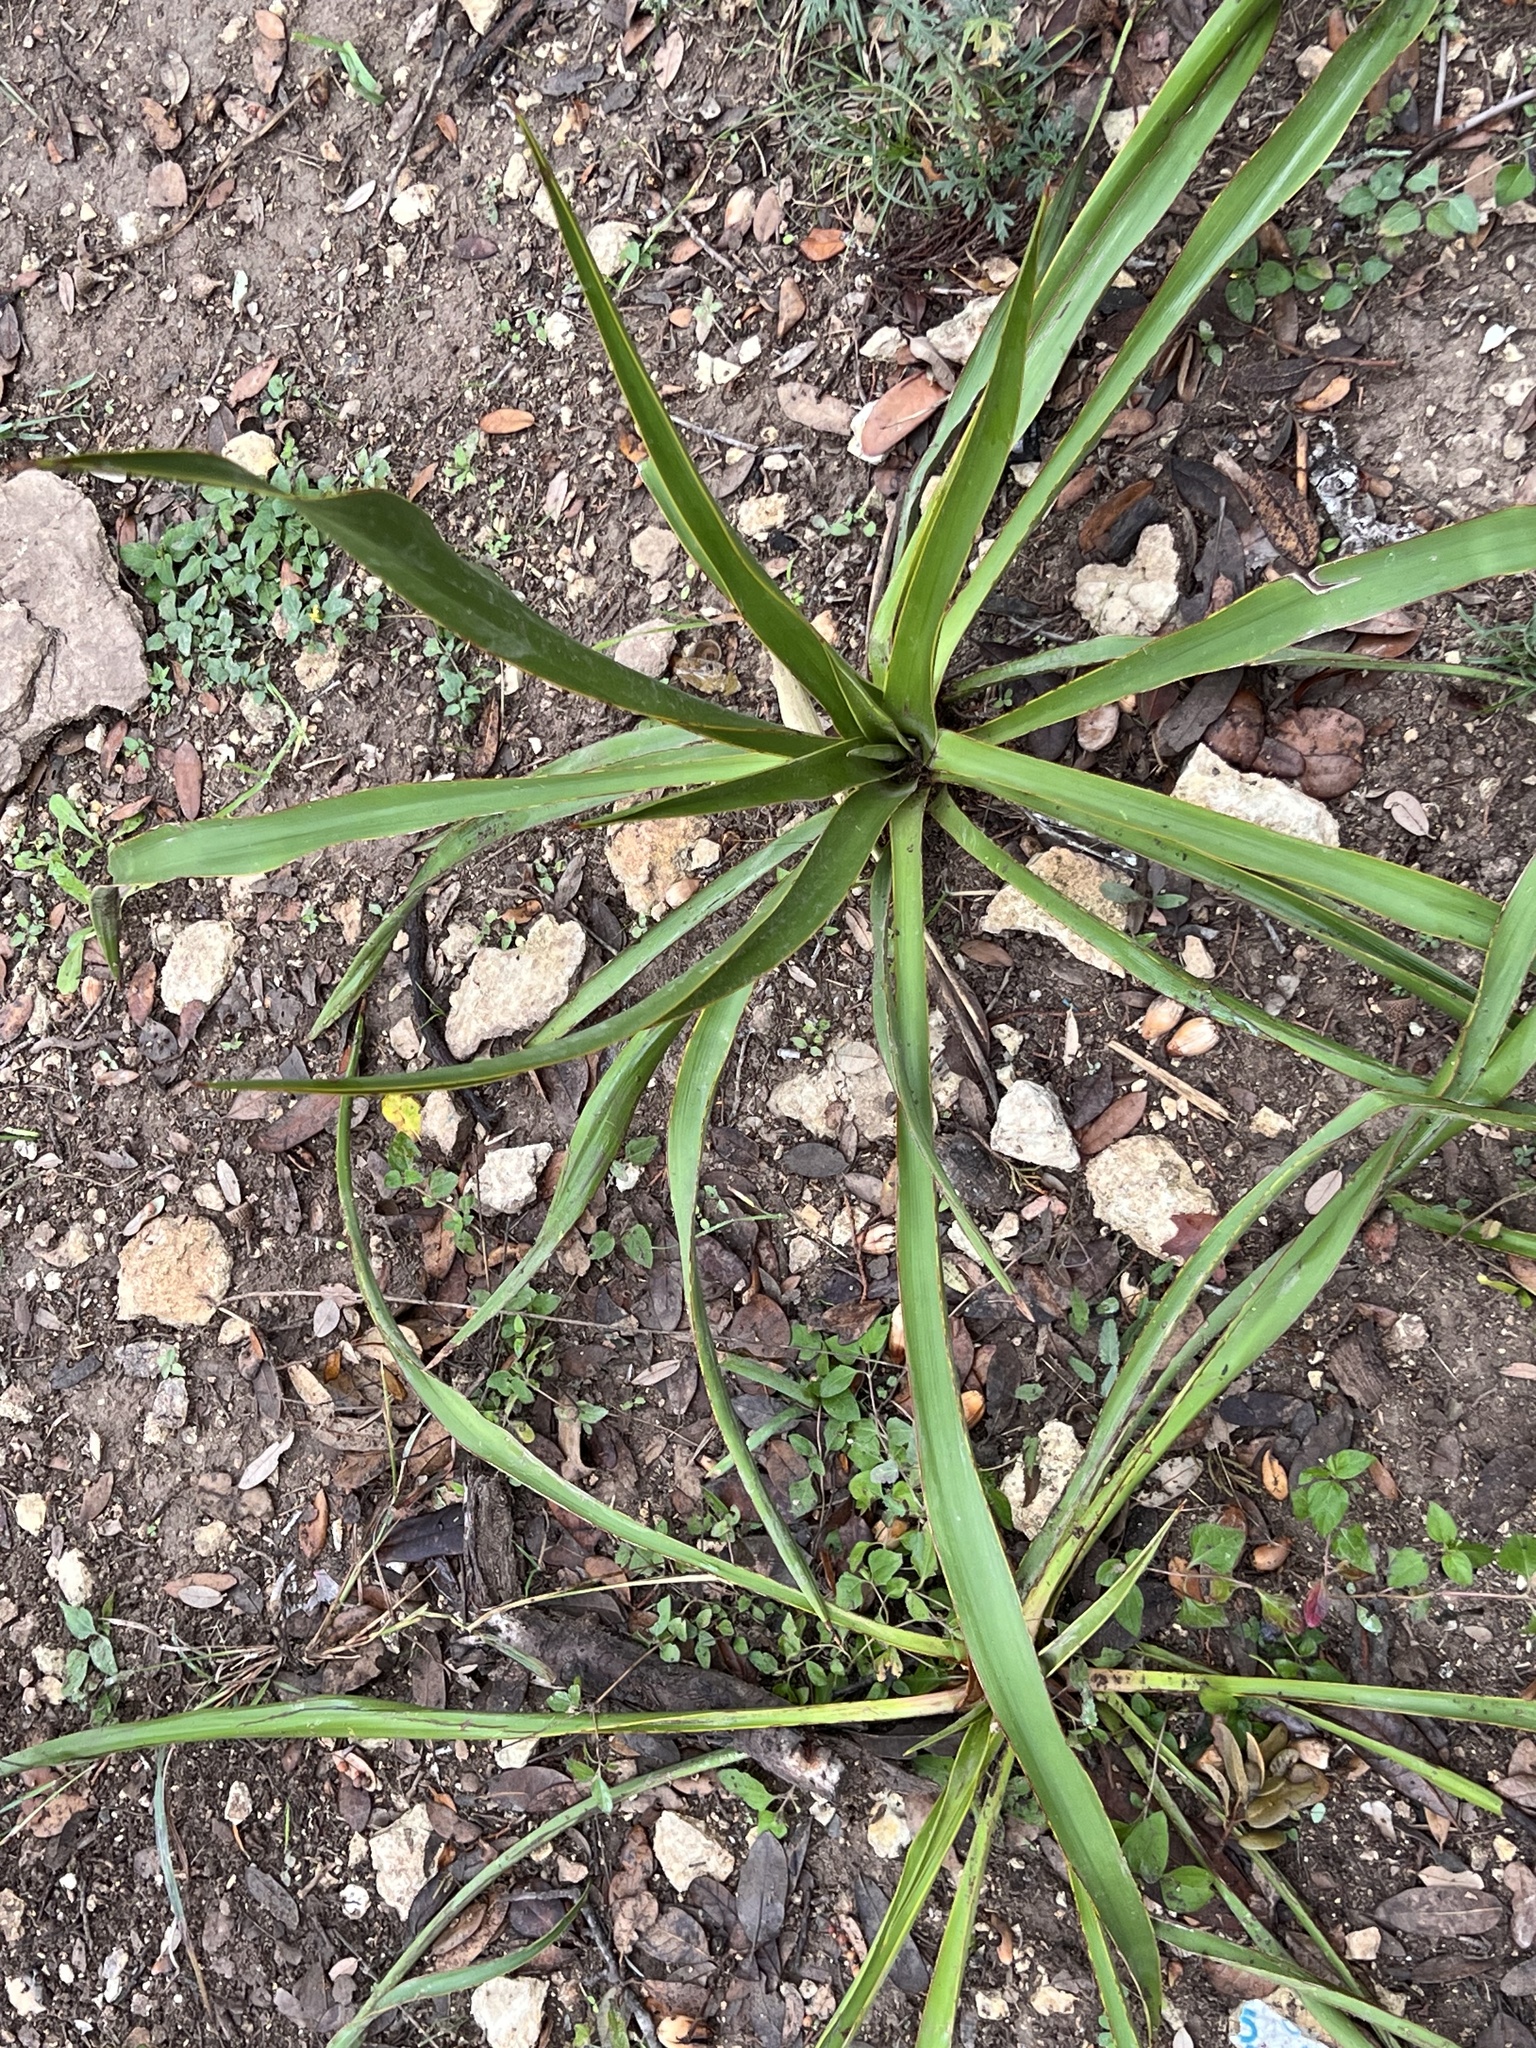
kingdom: Plantae
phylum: Tracheophyta
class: Liliopsida
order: Asparagales
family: Asparagaceae
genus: Yucca
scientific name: Yucca rupicola
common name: Twisted-leaf spanish-dagger
